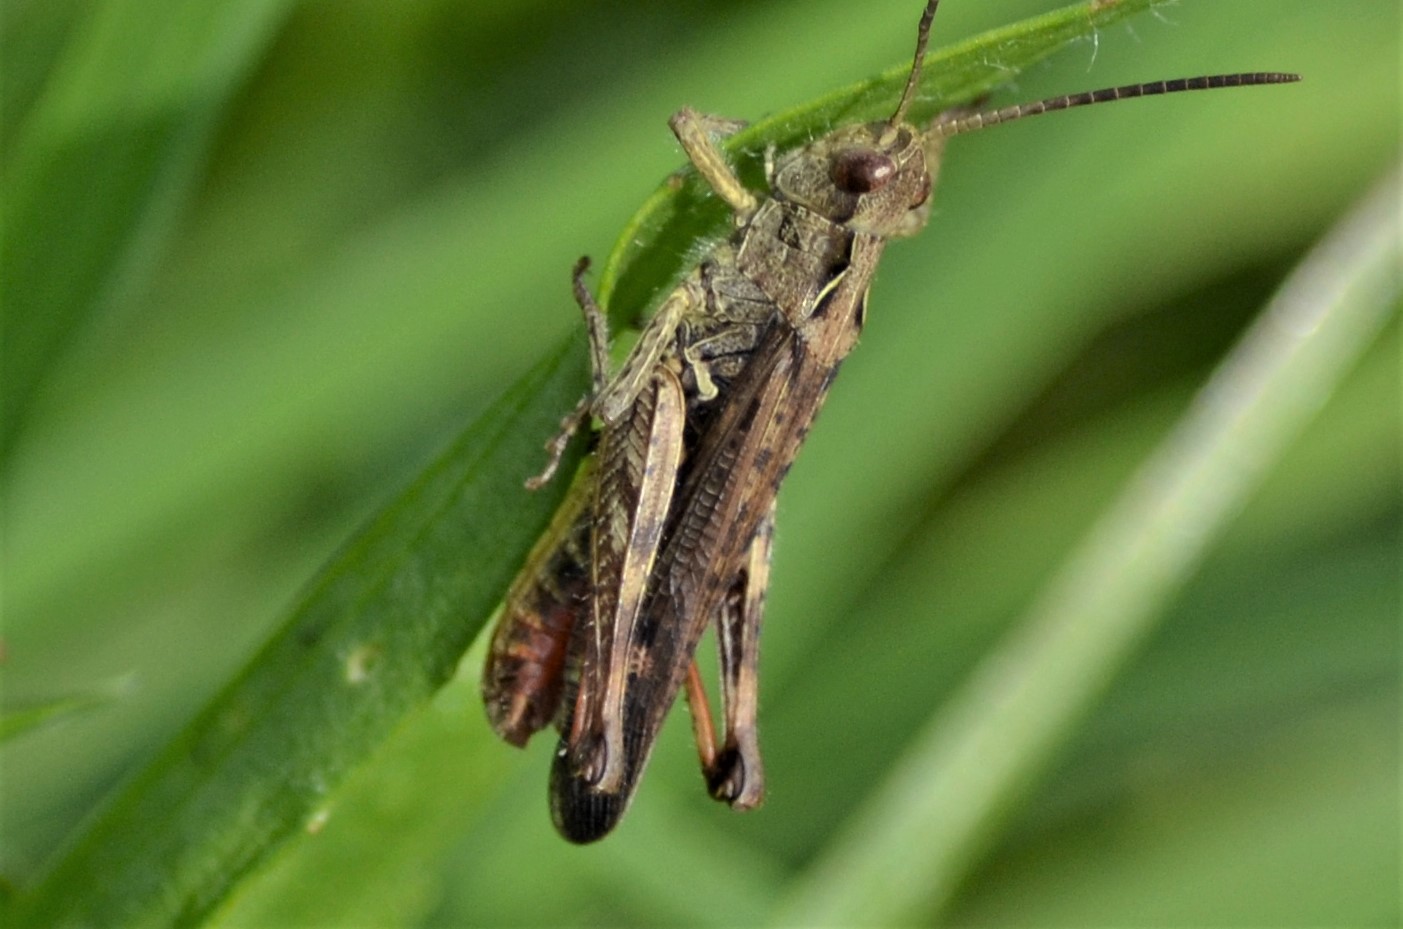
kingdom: Animalia
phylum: Arthropoda
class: Insecta
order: Orthoptera
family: Acrididae
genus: Chorthippus
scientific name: Chorthippus biguttulus
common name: Bow-winged grasshopper
